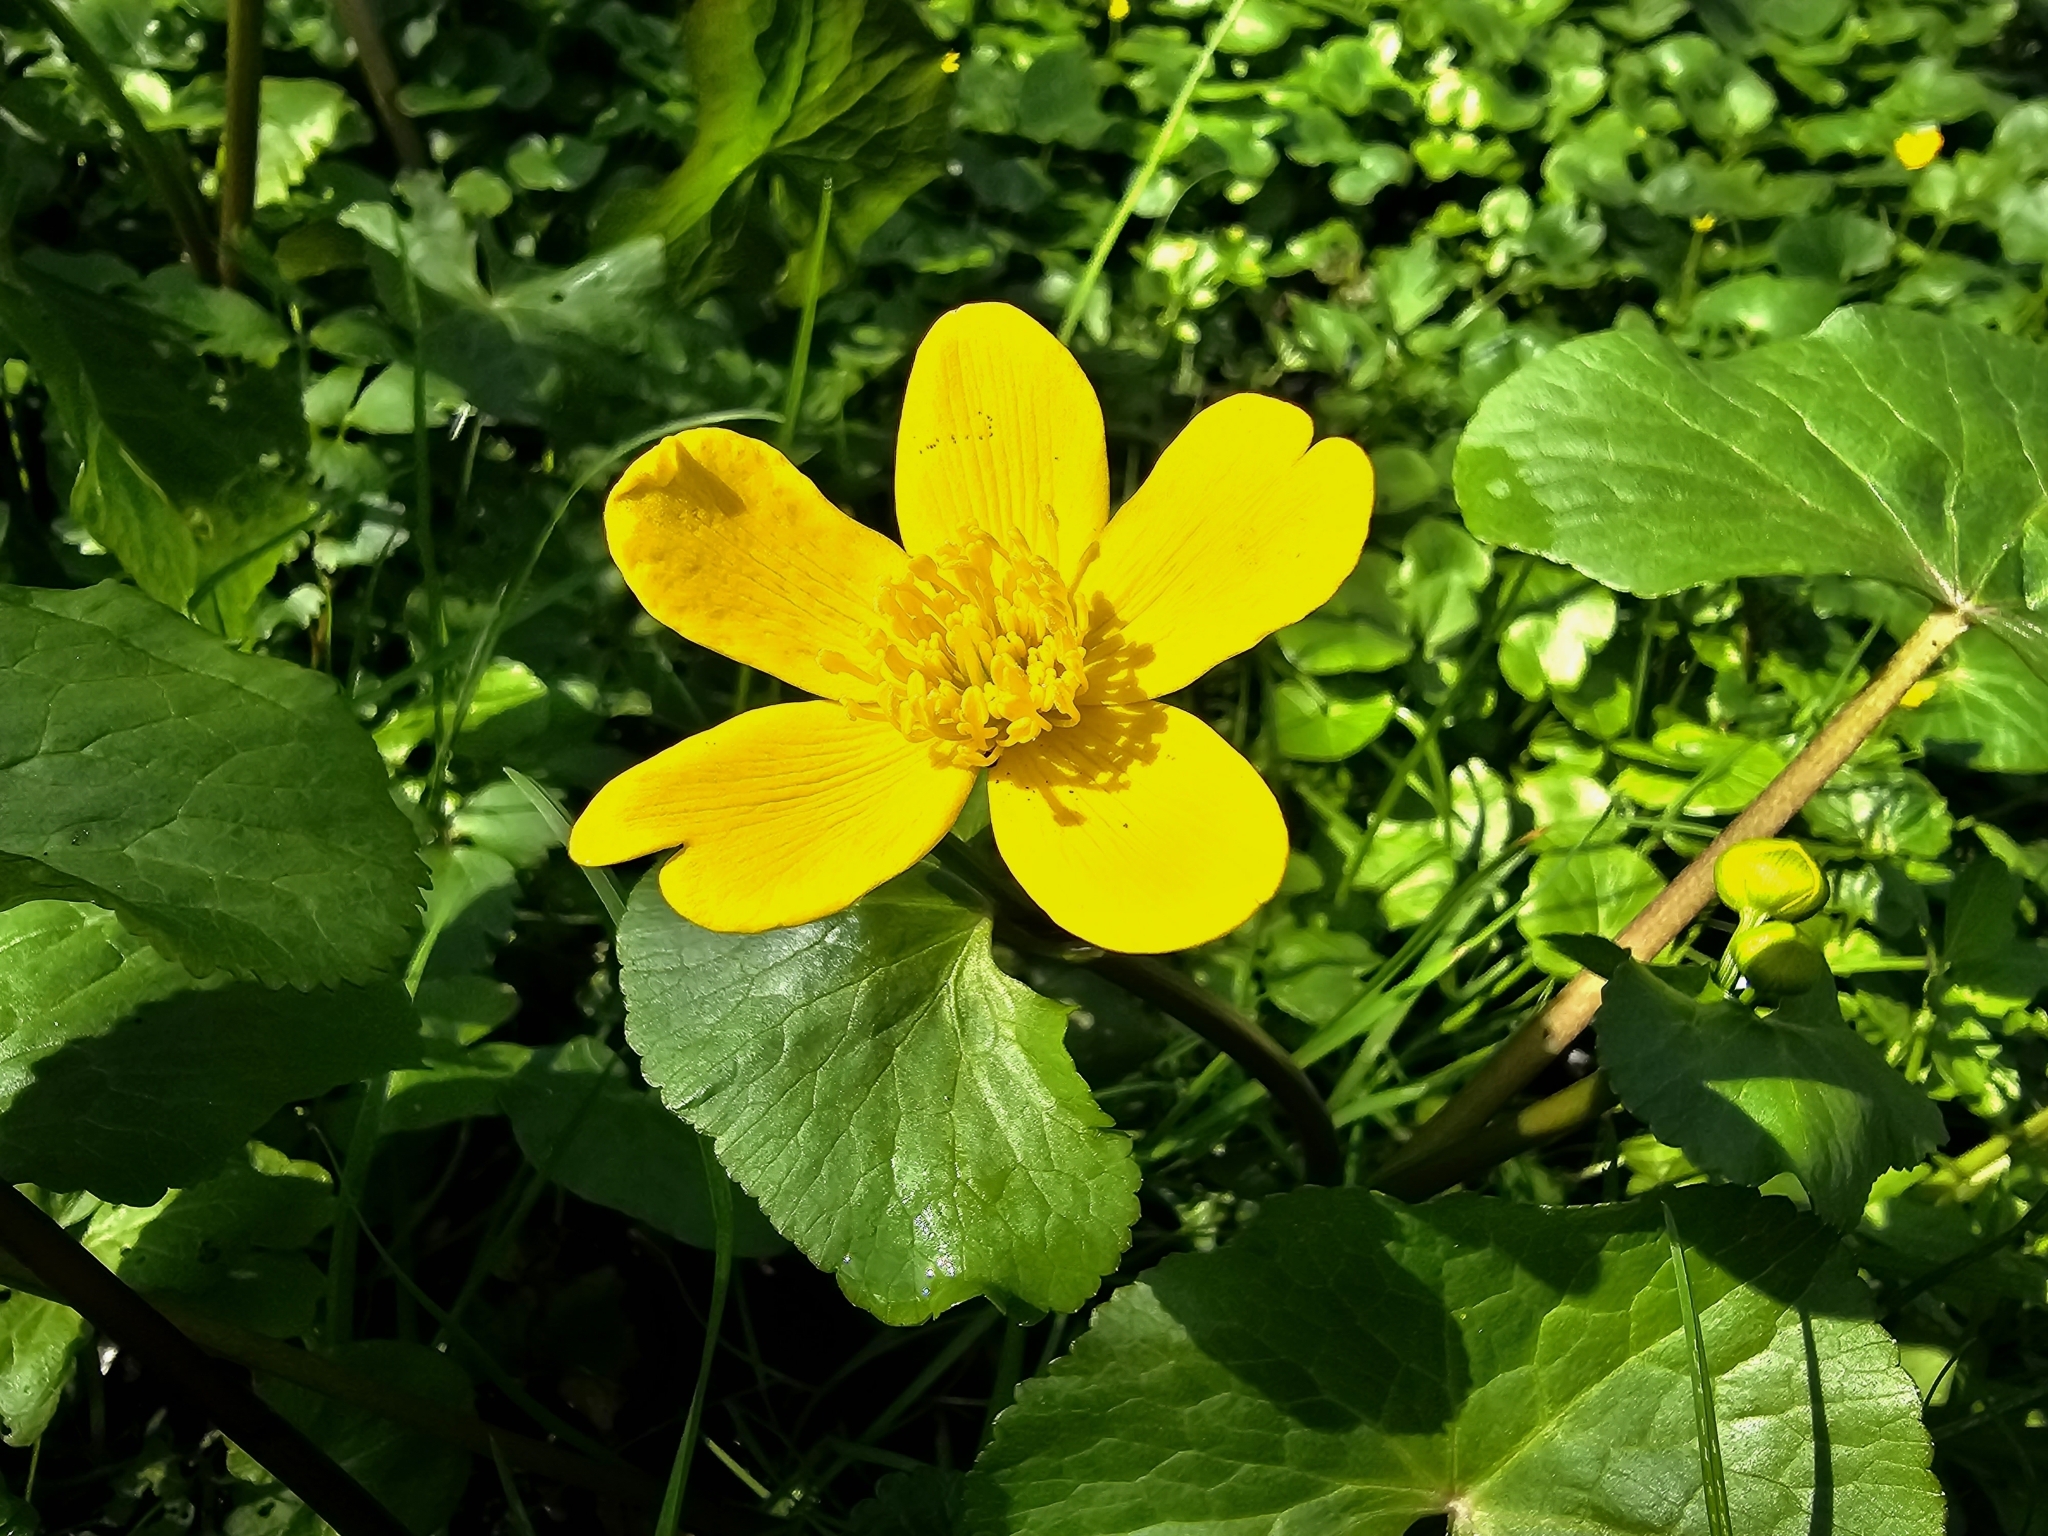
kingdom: Plantae
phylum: Tracheophyta
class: Magnoliopsida
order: Ranunculales
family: Ranunculaceae
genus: Caltha
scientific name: Caltha palustris
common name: Marsh marigold
